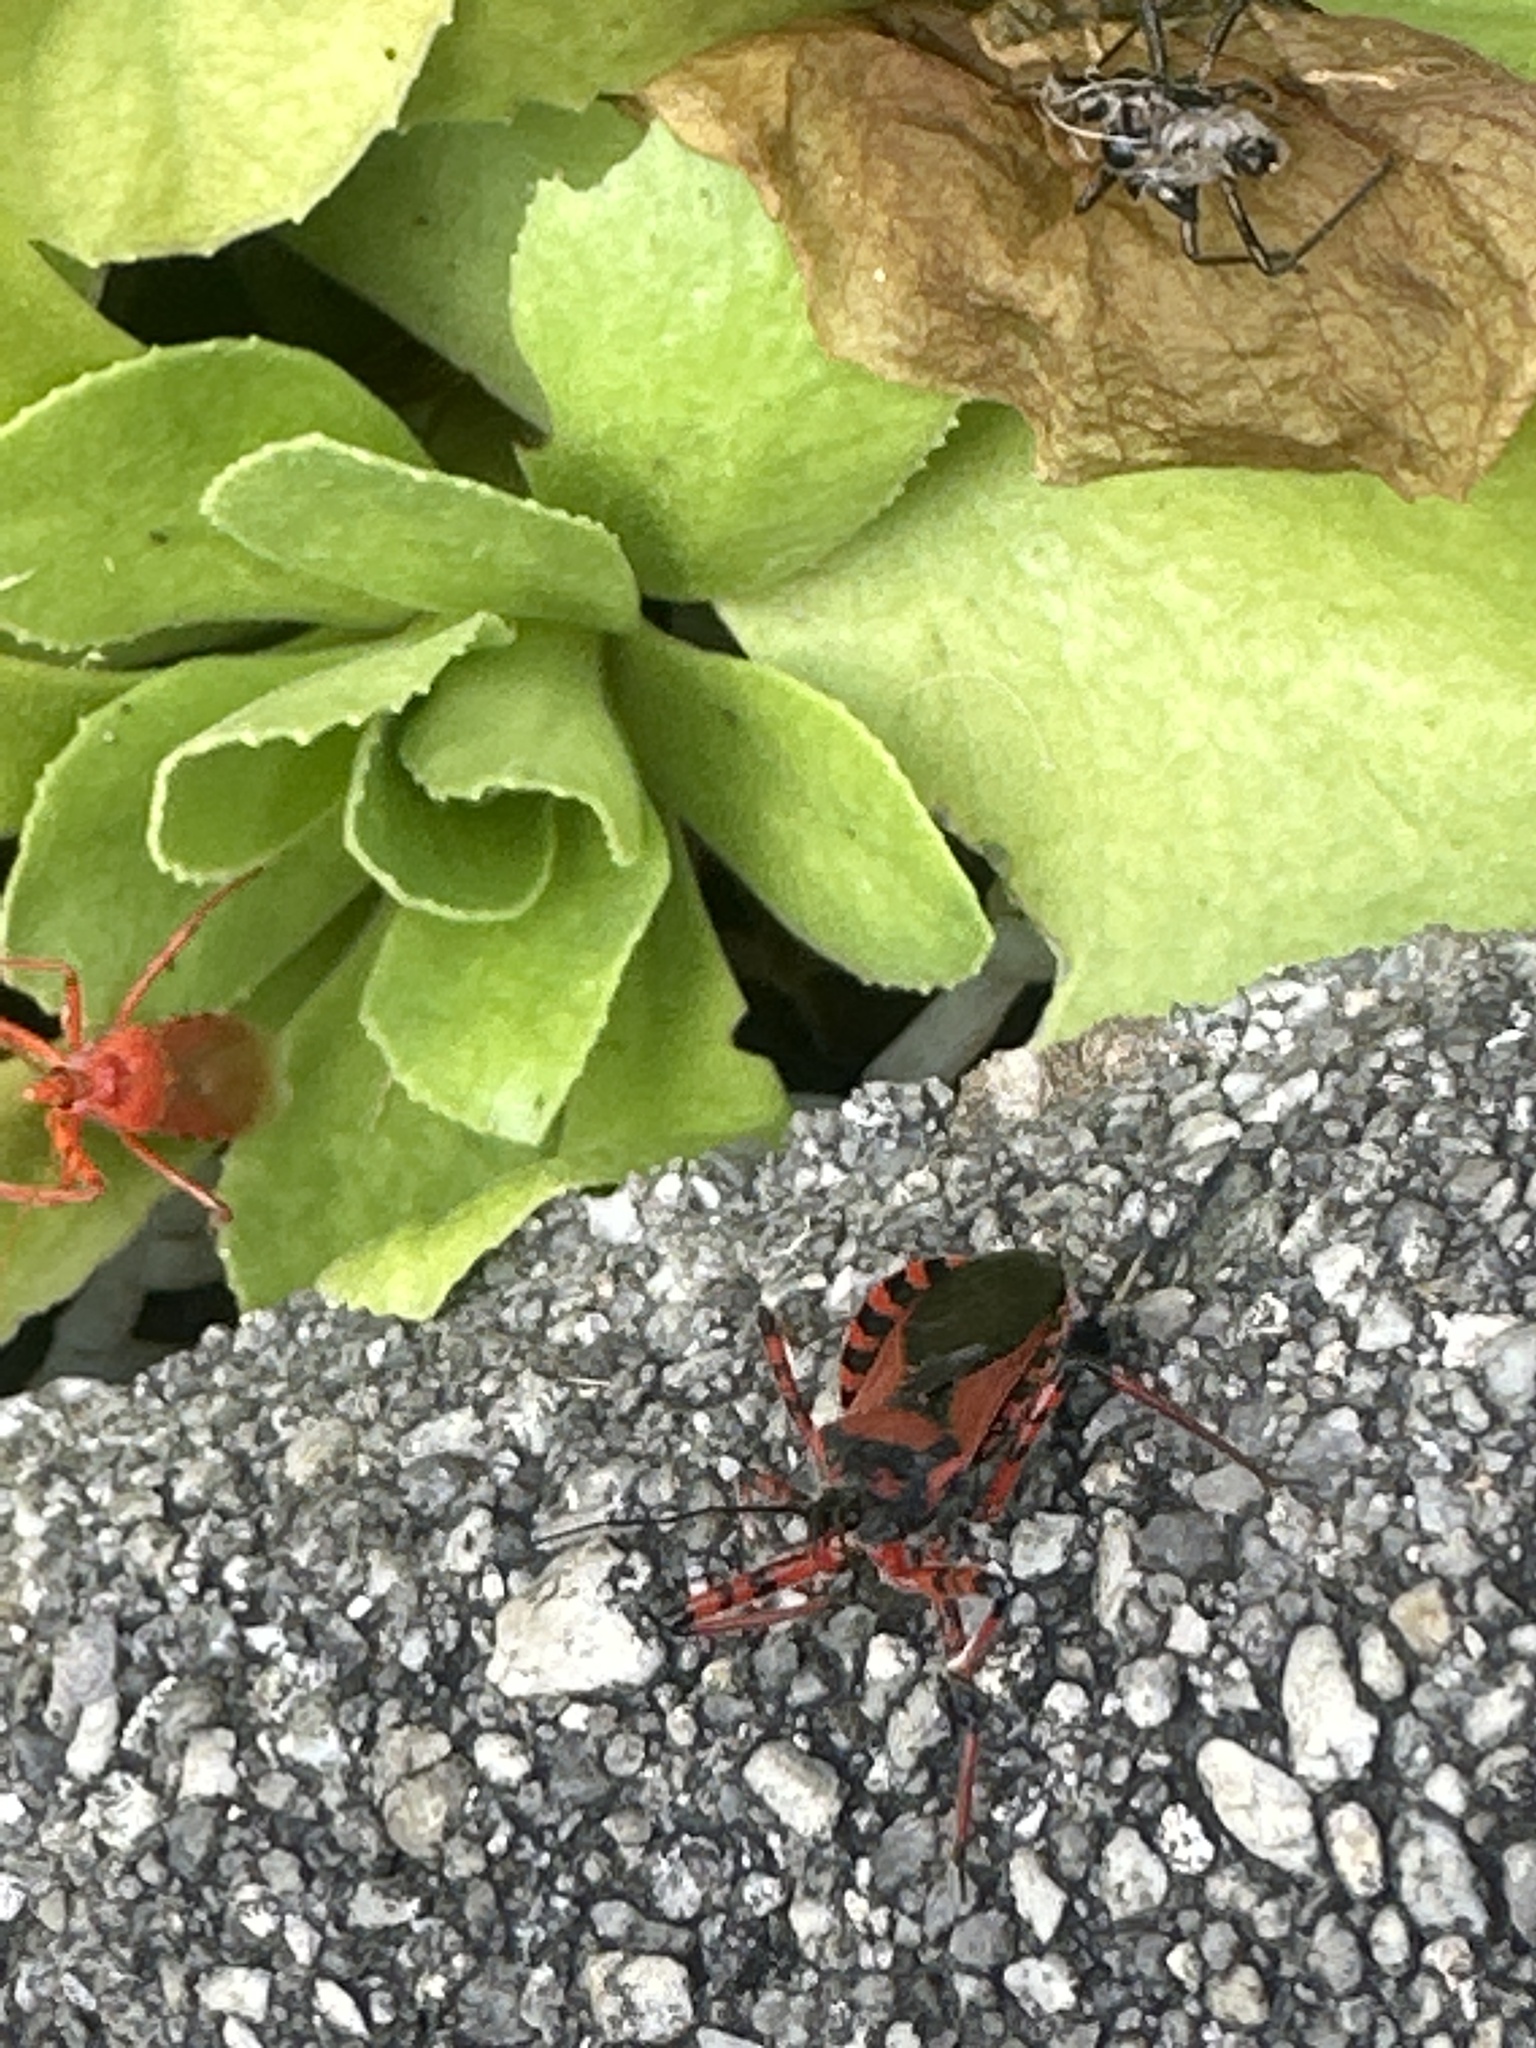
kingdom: Animalia
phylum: Arthropoda
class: Insecta
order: Hemiptera
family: Reduviidae
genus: Rhynocoris
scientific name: Rhynocoris iracundus
